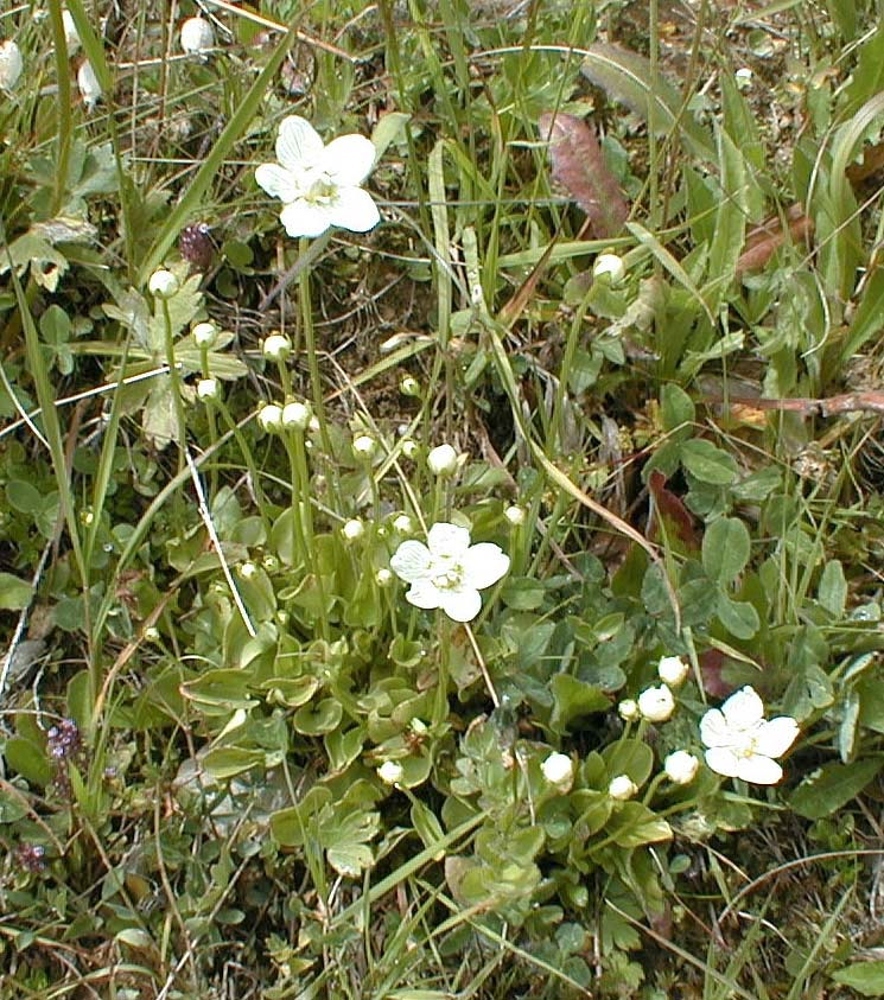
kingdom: Plantae
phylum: Tracheophyta
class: Magnoliopsida
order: Celastrales
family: Parnassiaceae
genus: Parnassia
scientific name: Parnassia palustris
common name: Grass-of-parnassus
